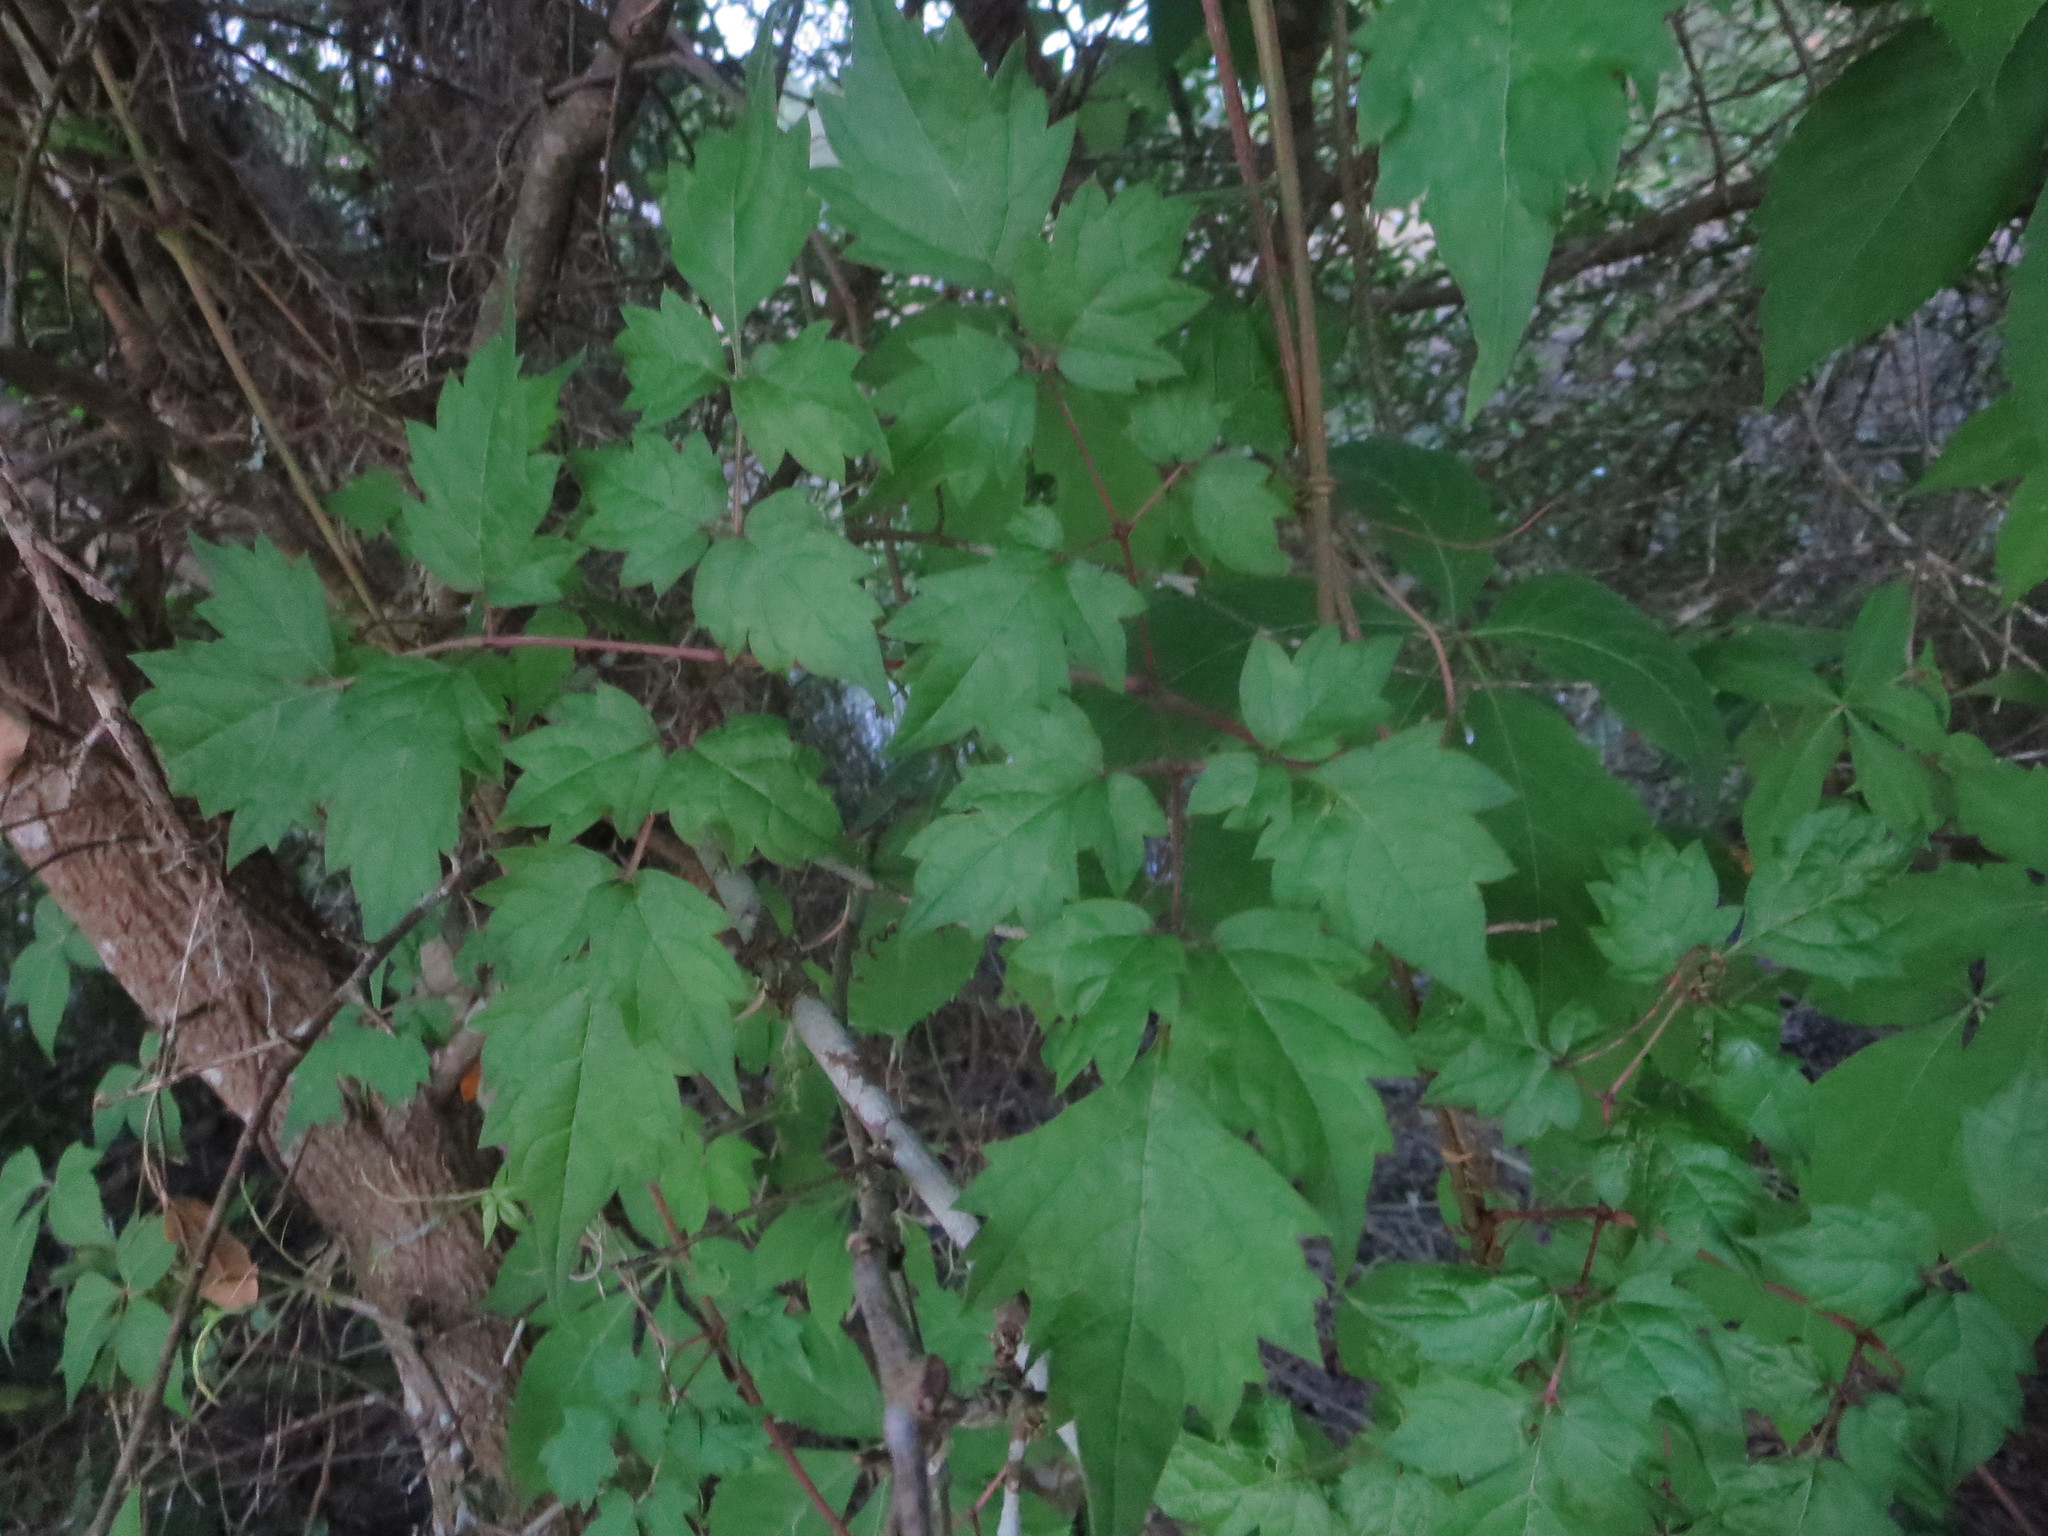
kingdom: Plantae
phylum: Tracheophyta
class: Magnoliopsida
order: Vitales
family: Vitaceae
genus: Nekemias
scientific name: Nekemias arborea
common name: Peppervine
